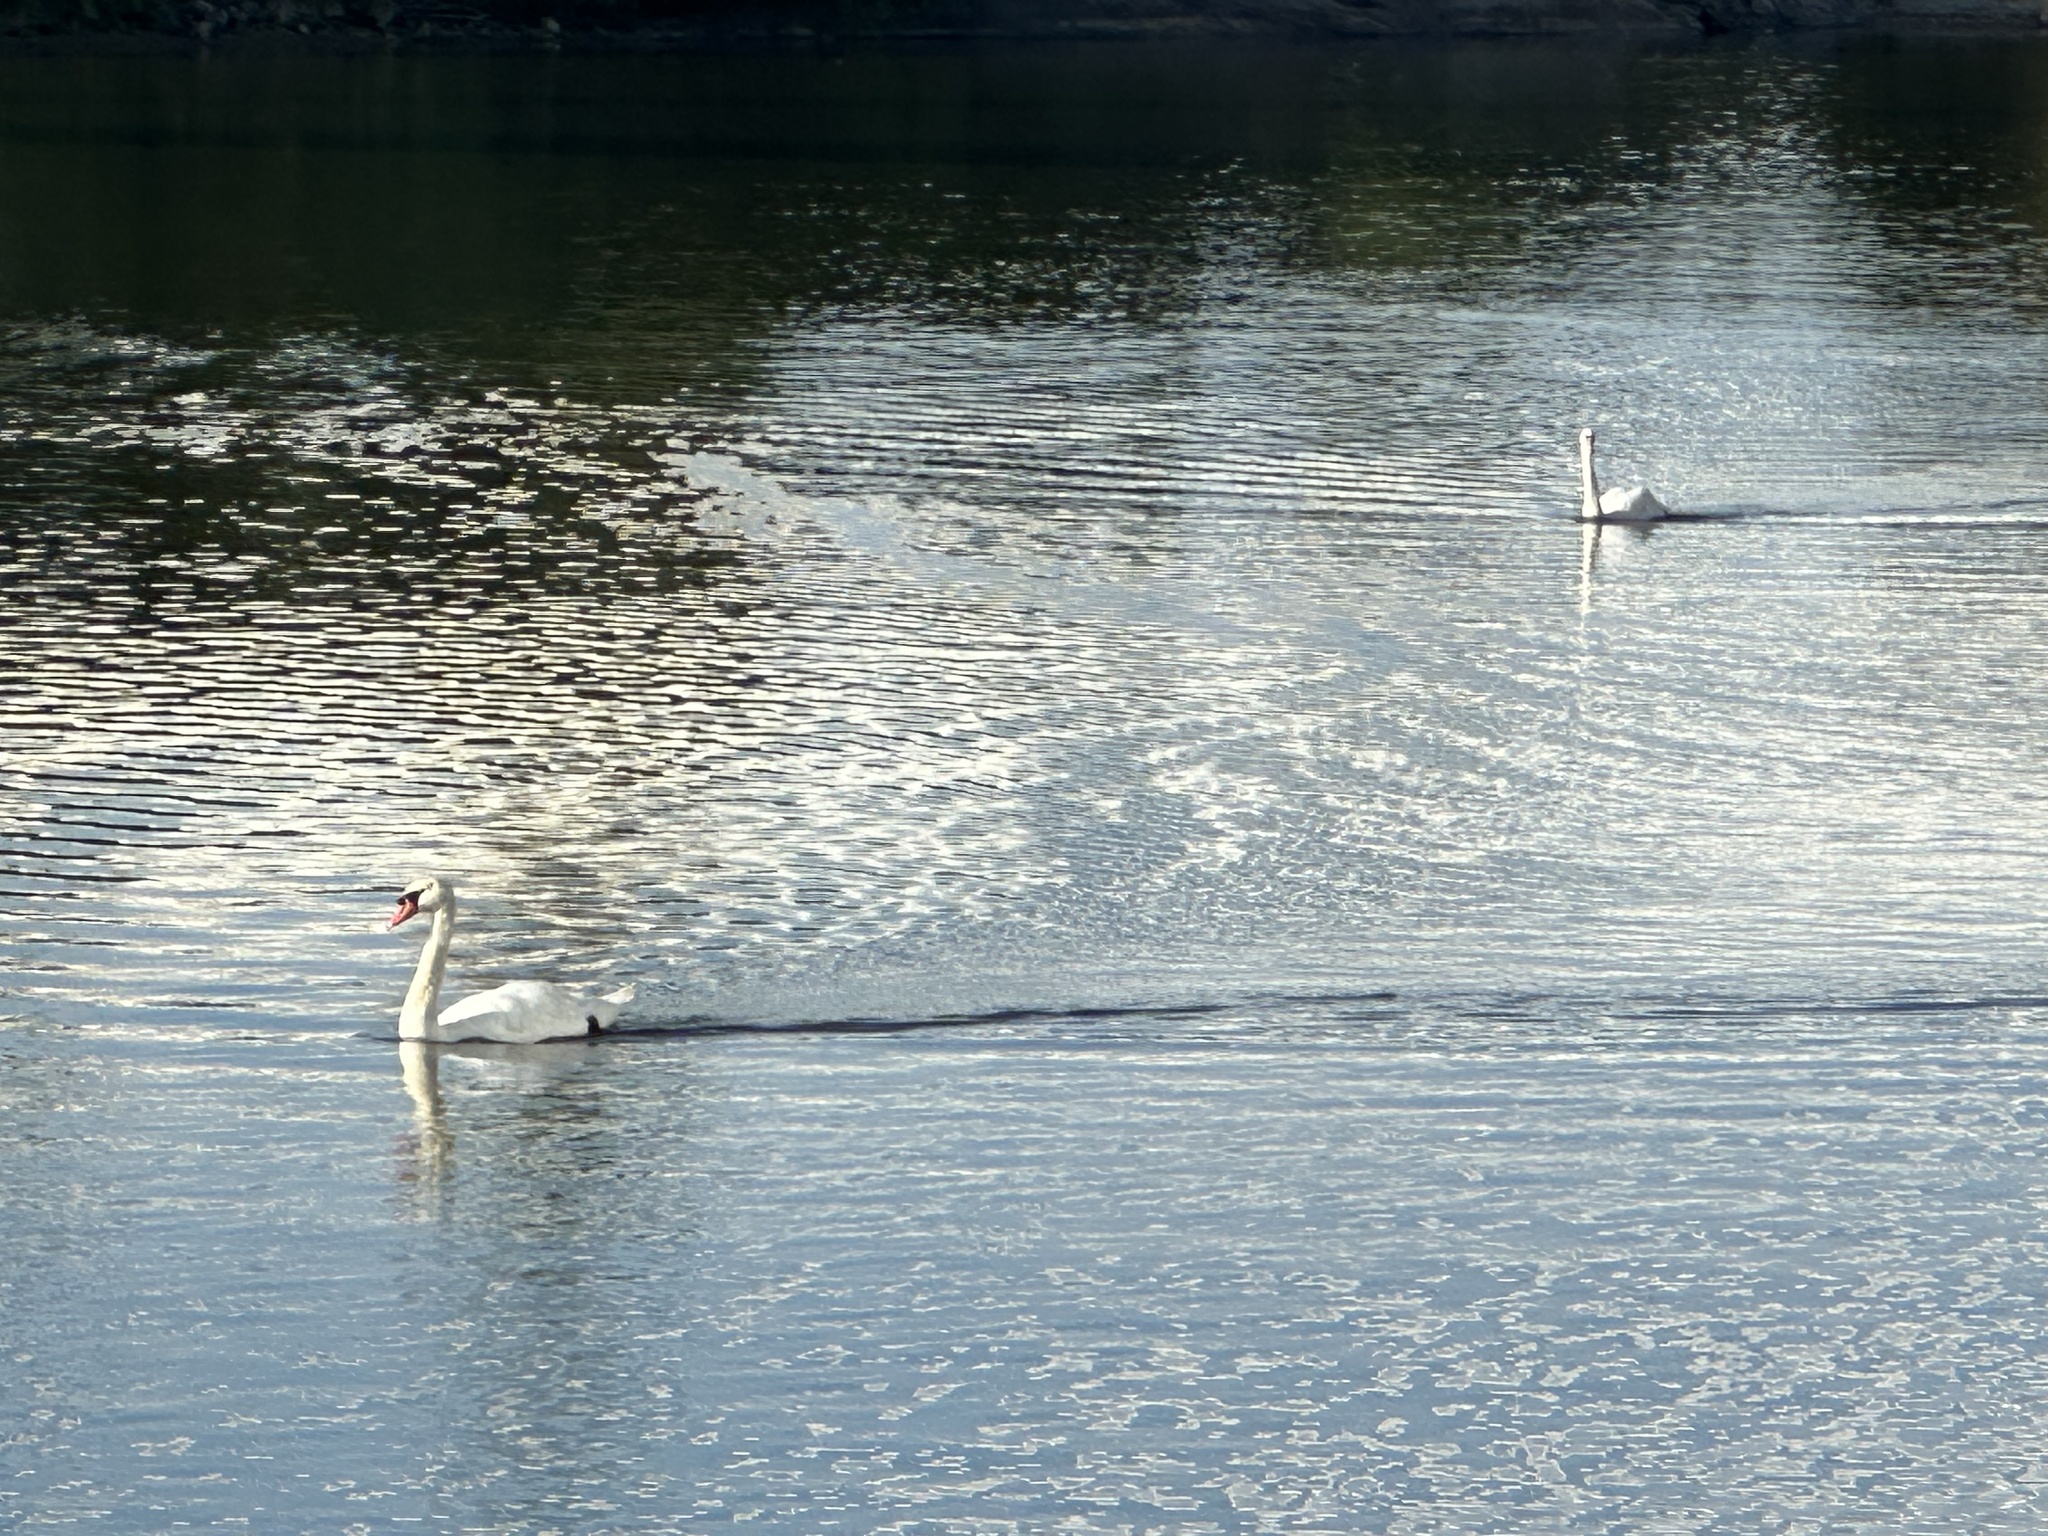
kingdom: Animalia
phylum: Chordata
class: Aves
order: Anseriformes
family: Anatidae
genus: Cygnus
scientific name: Cygnus olor
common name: Mute swan
